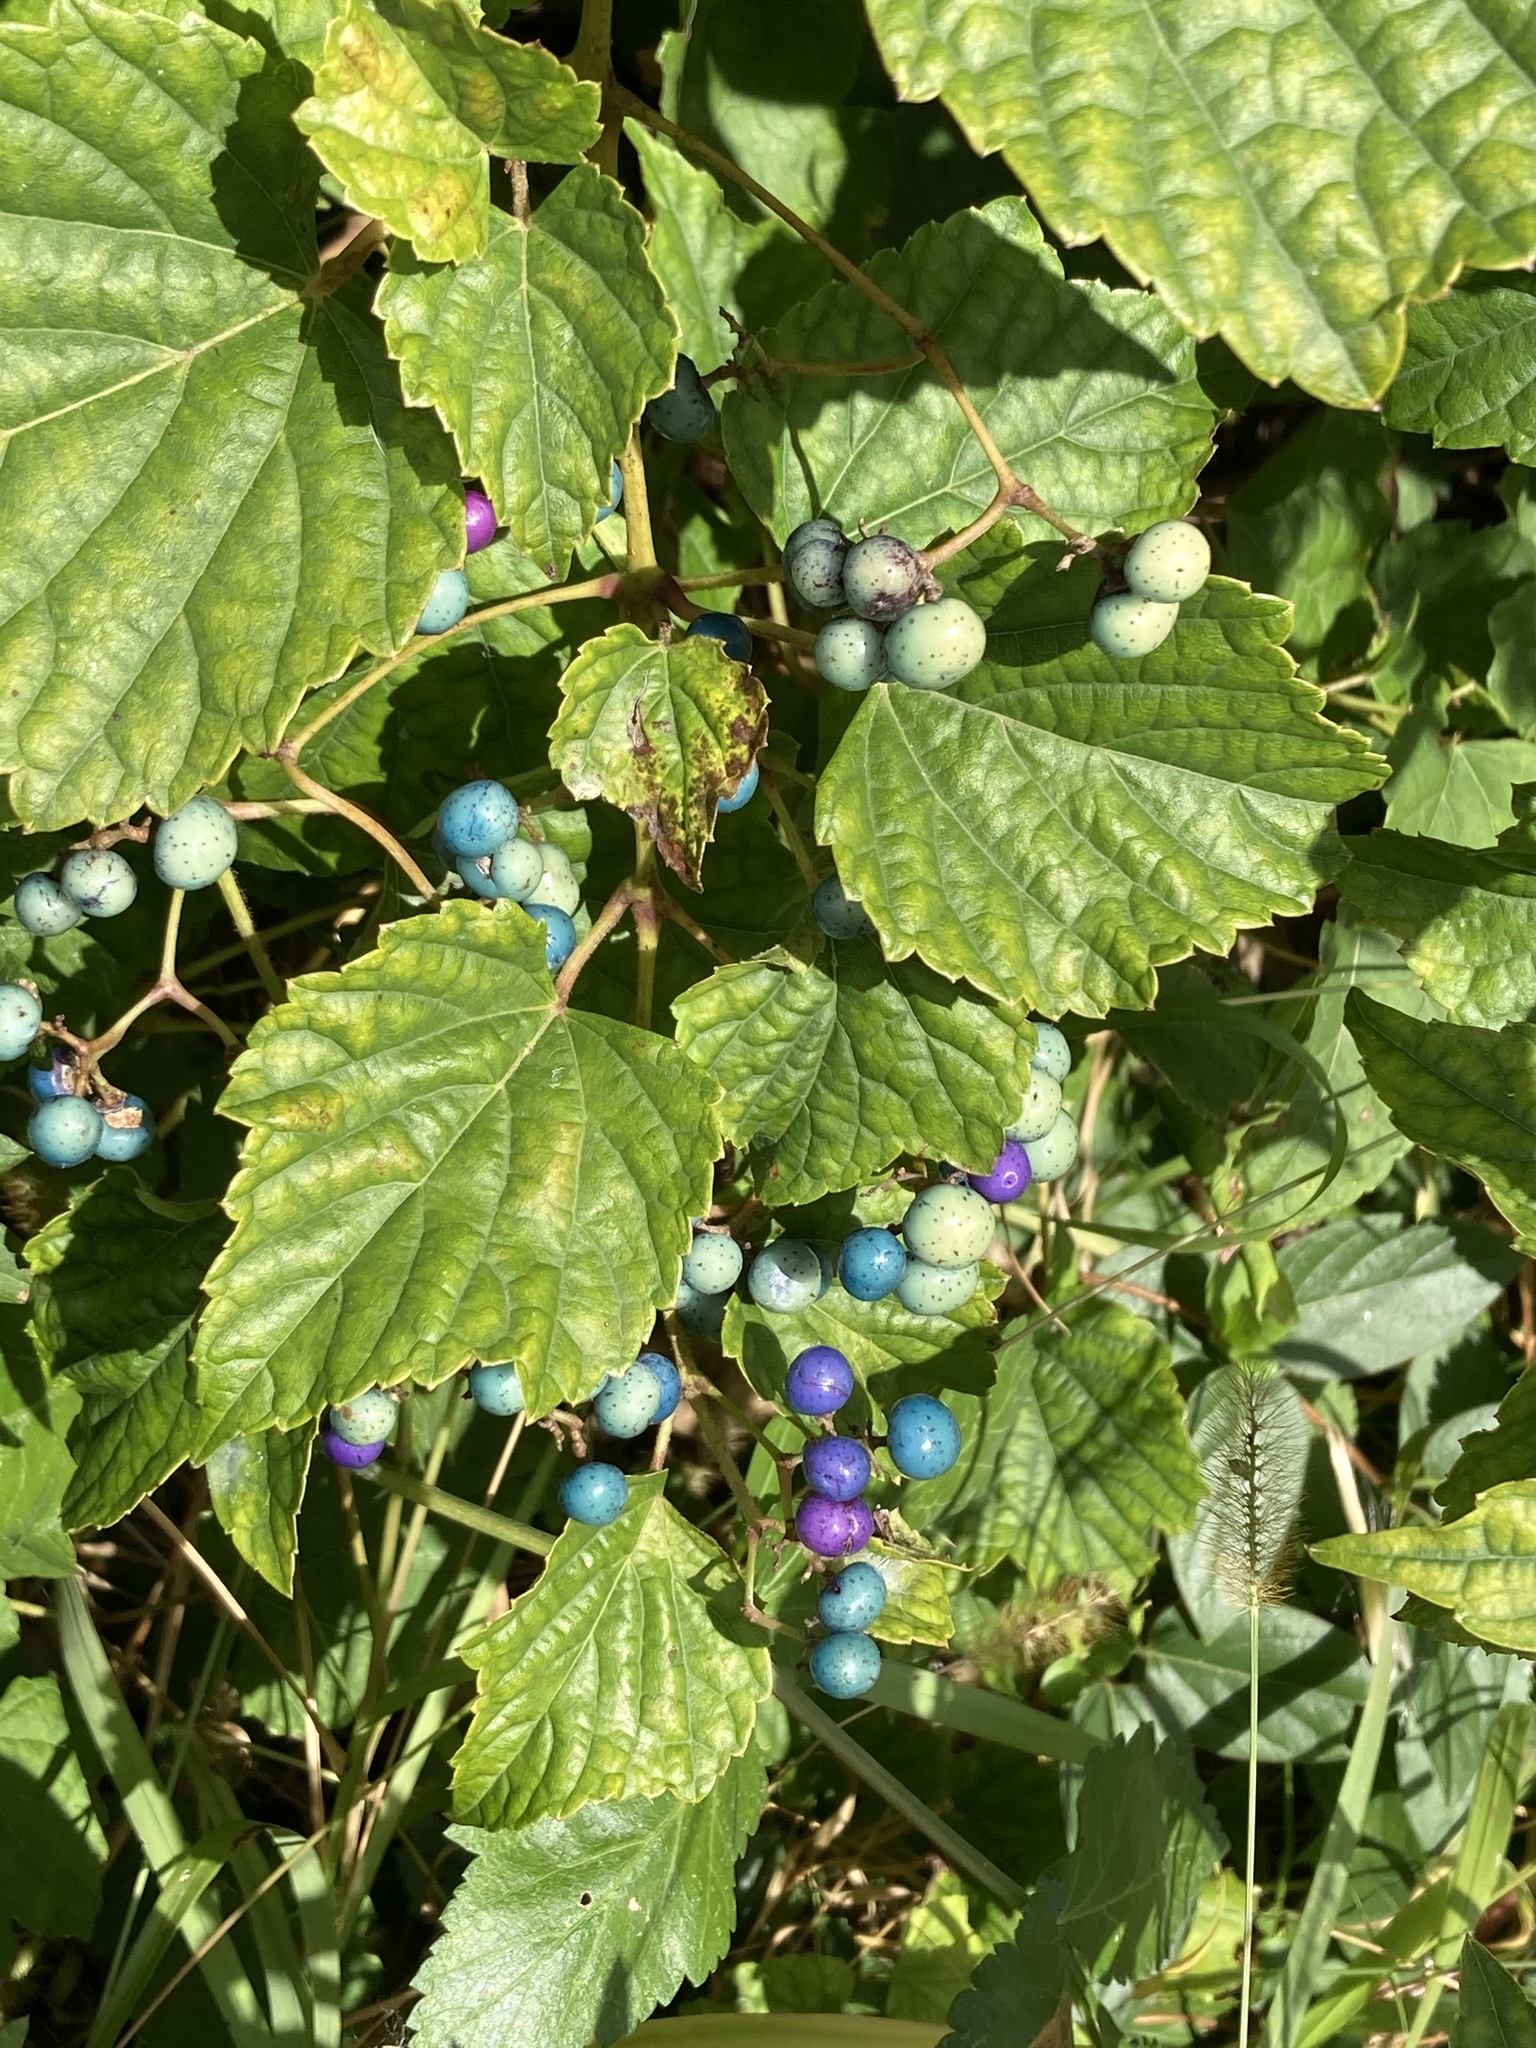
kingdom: Plantae
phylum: Tracheophyta
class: Magnoliopsida
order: Vitales
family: Vitaceae
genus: Ampelopsis
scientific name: Ampelopsis glandulosa
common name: Amur peppervine
